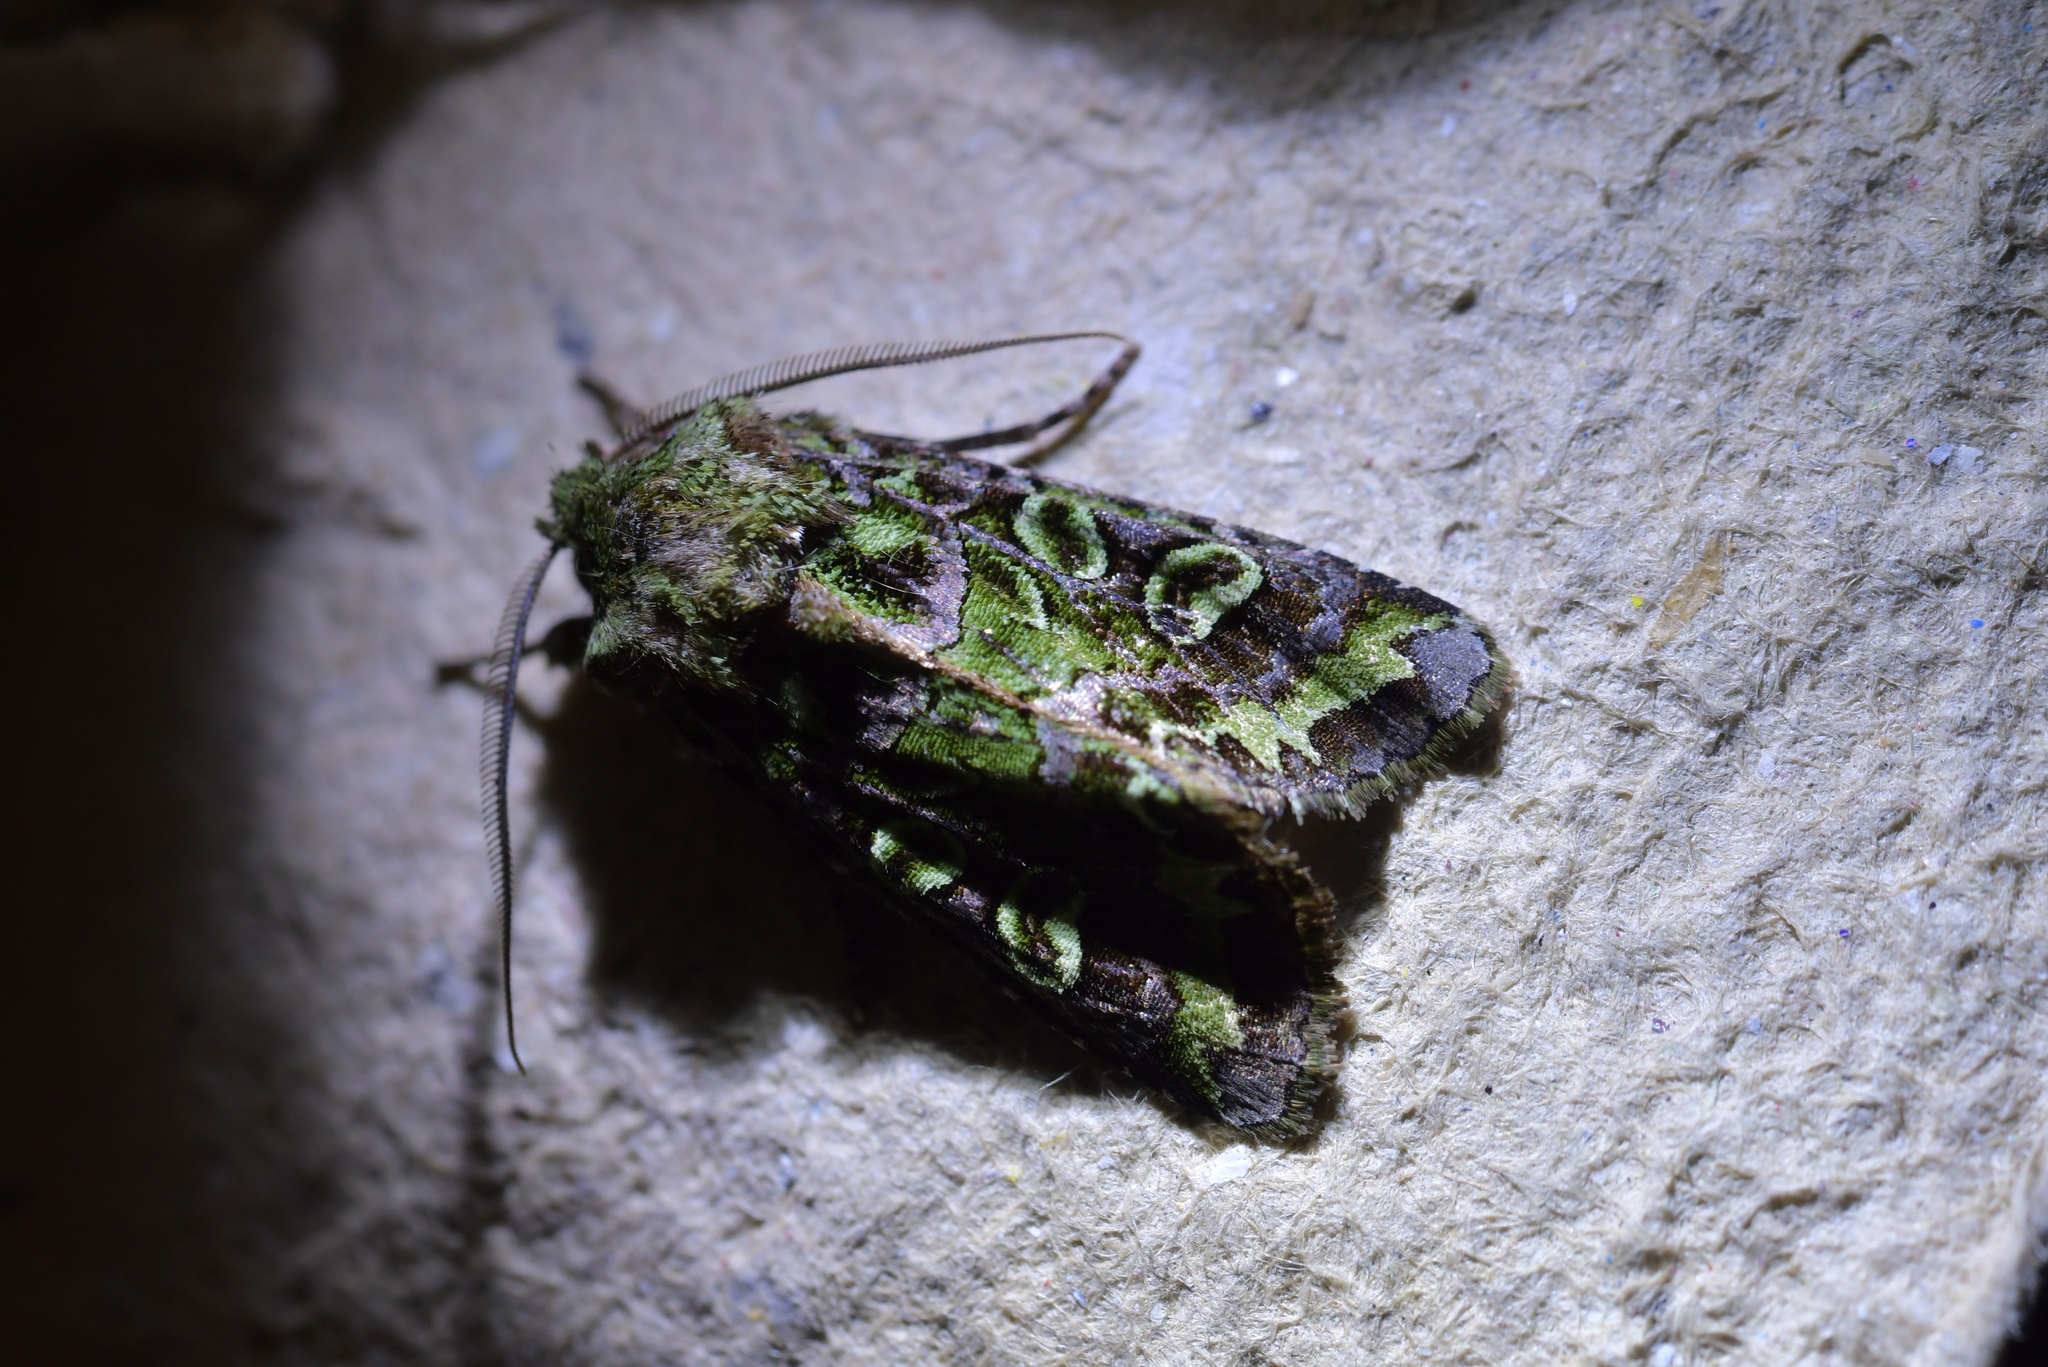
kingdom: Animalia
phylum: Arthropoda
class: Insecta
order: Lepidoptera
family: Noctuidae
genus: Ichneutica
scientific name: Ichneutica chlorodonta
